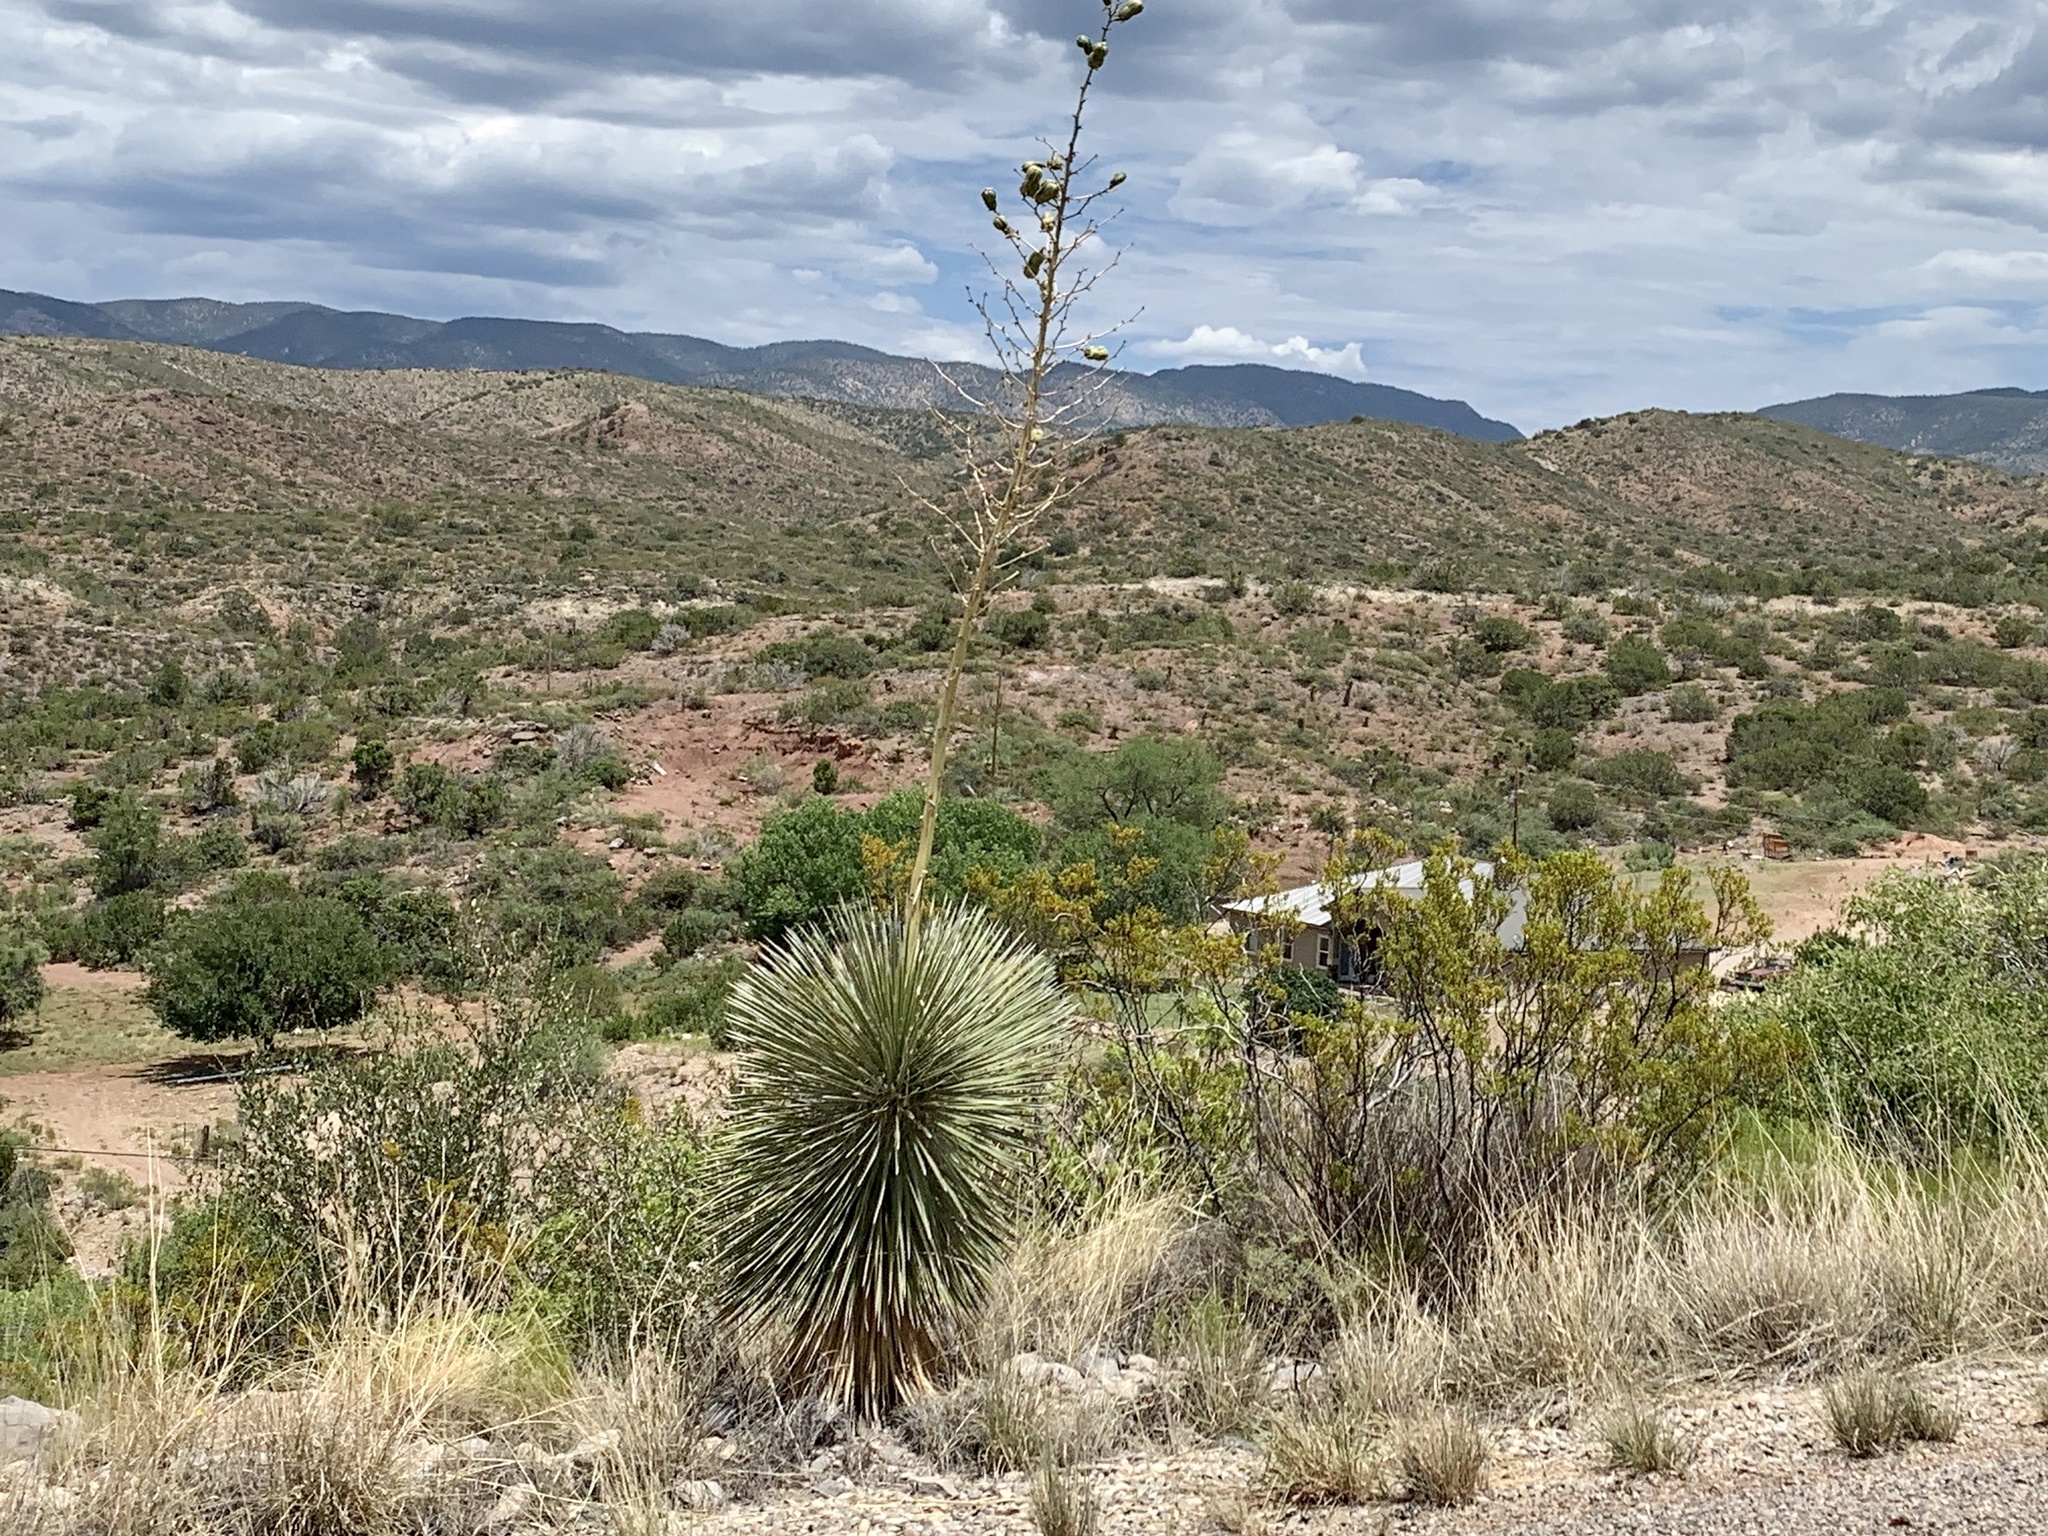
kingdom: Plantae
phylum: Tracheophyta
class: Liliopsida
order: Asparagales
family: Asparagaceae
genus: Yucca
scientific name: Yucca elata
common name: Palmella
